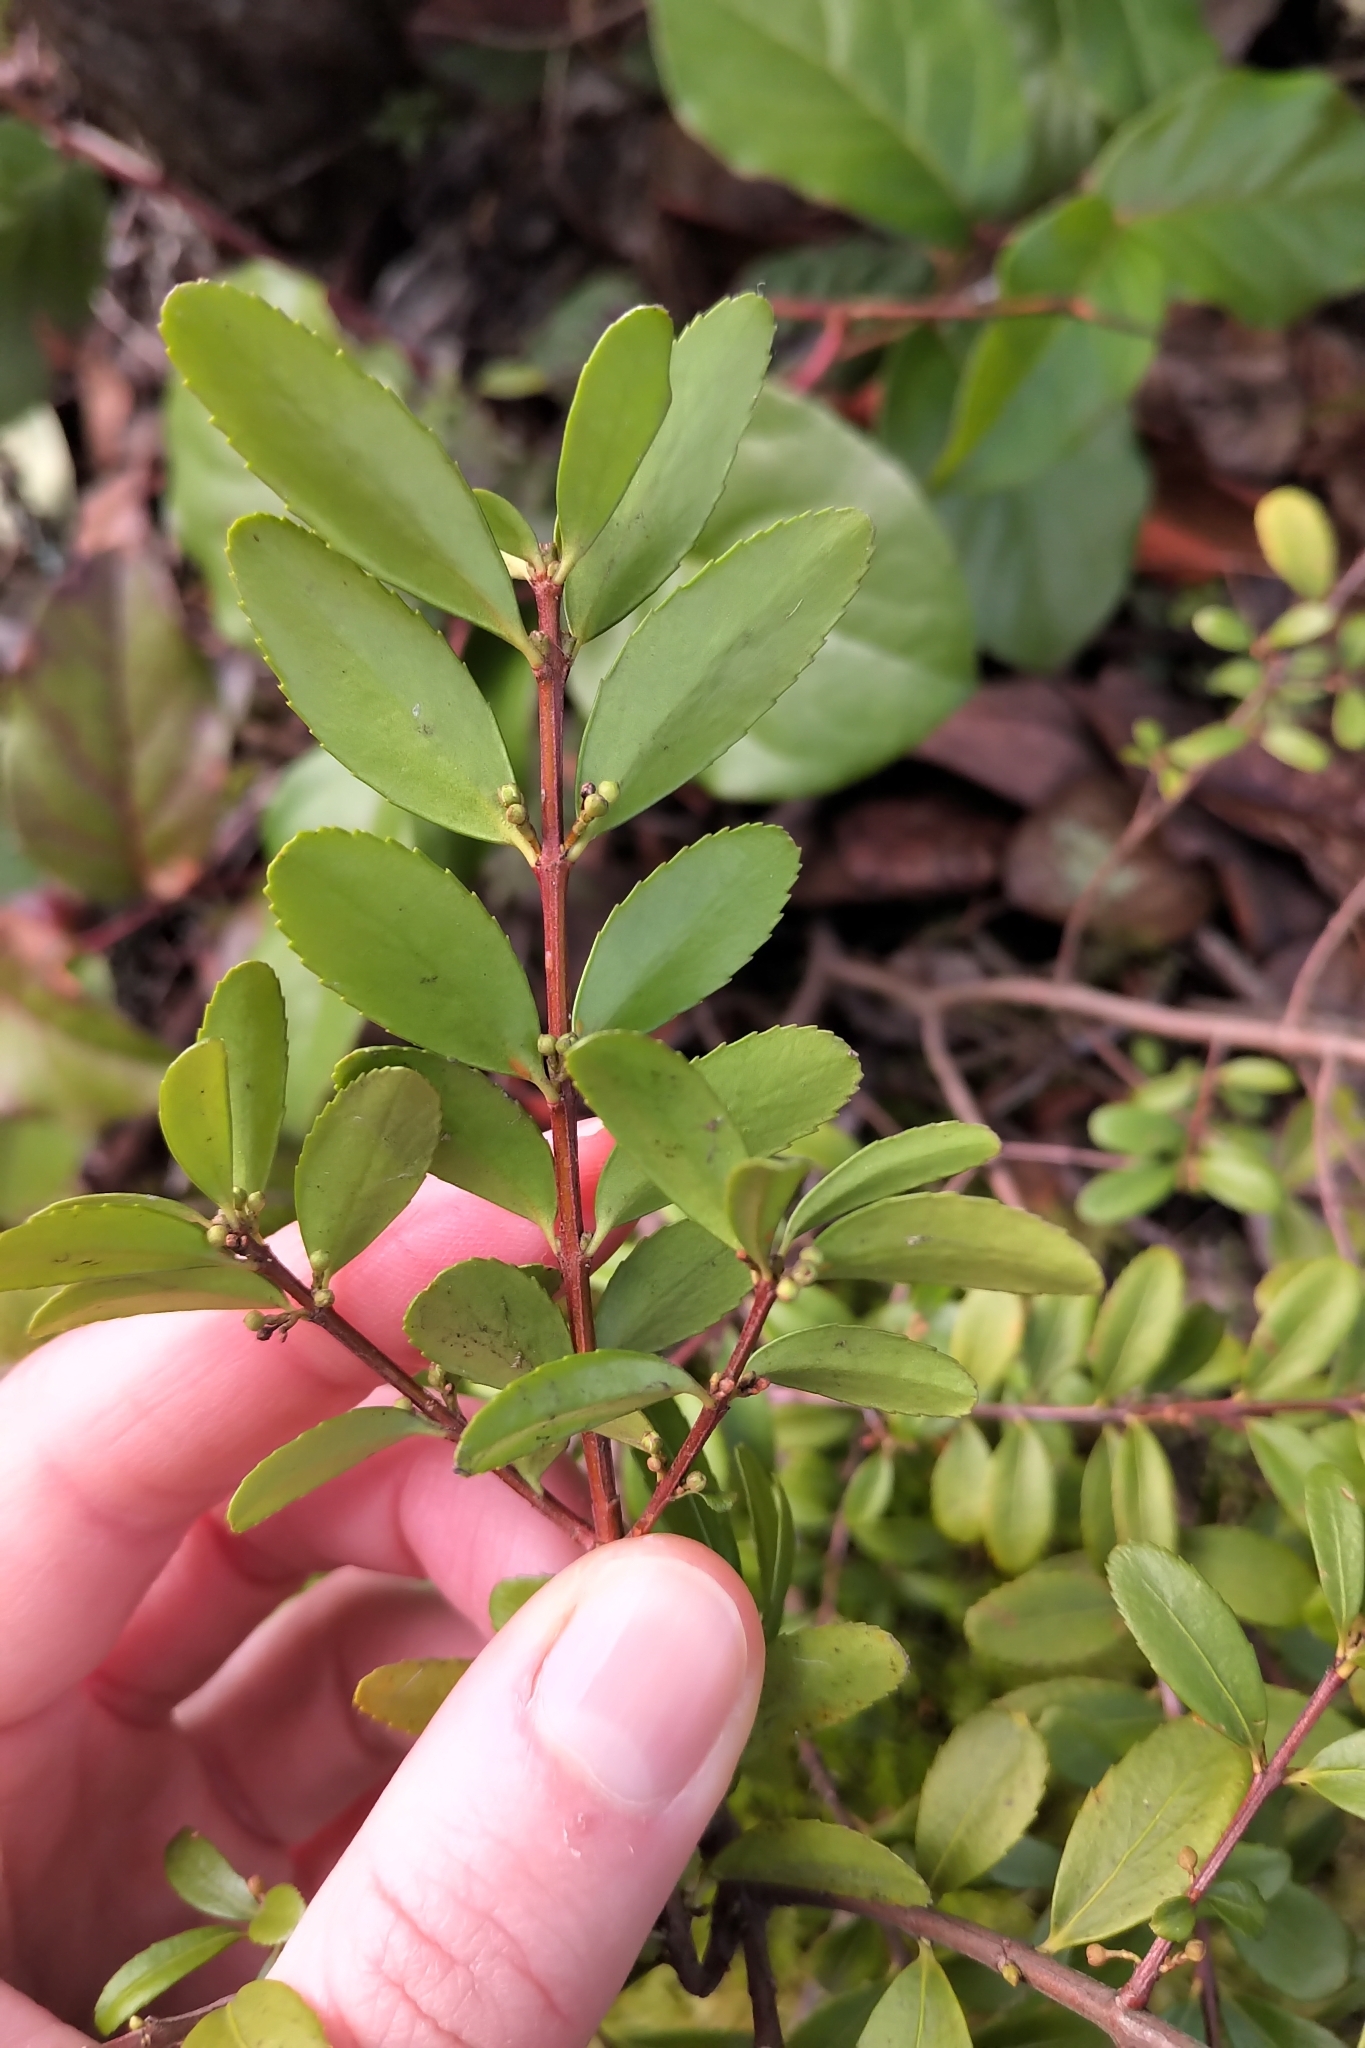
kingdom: Plantae
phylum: Tracheophyta
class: Magnoliopsida
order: Celastrales
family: Celastraceae
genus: Paxistima
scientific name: Paxistima myrsinites
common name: Mountain-lover
